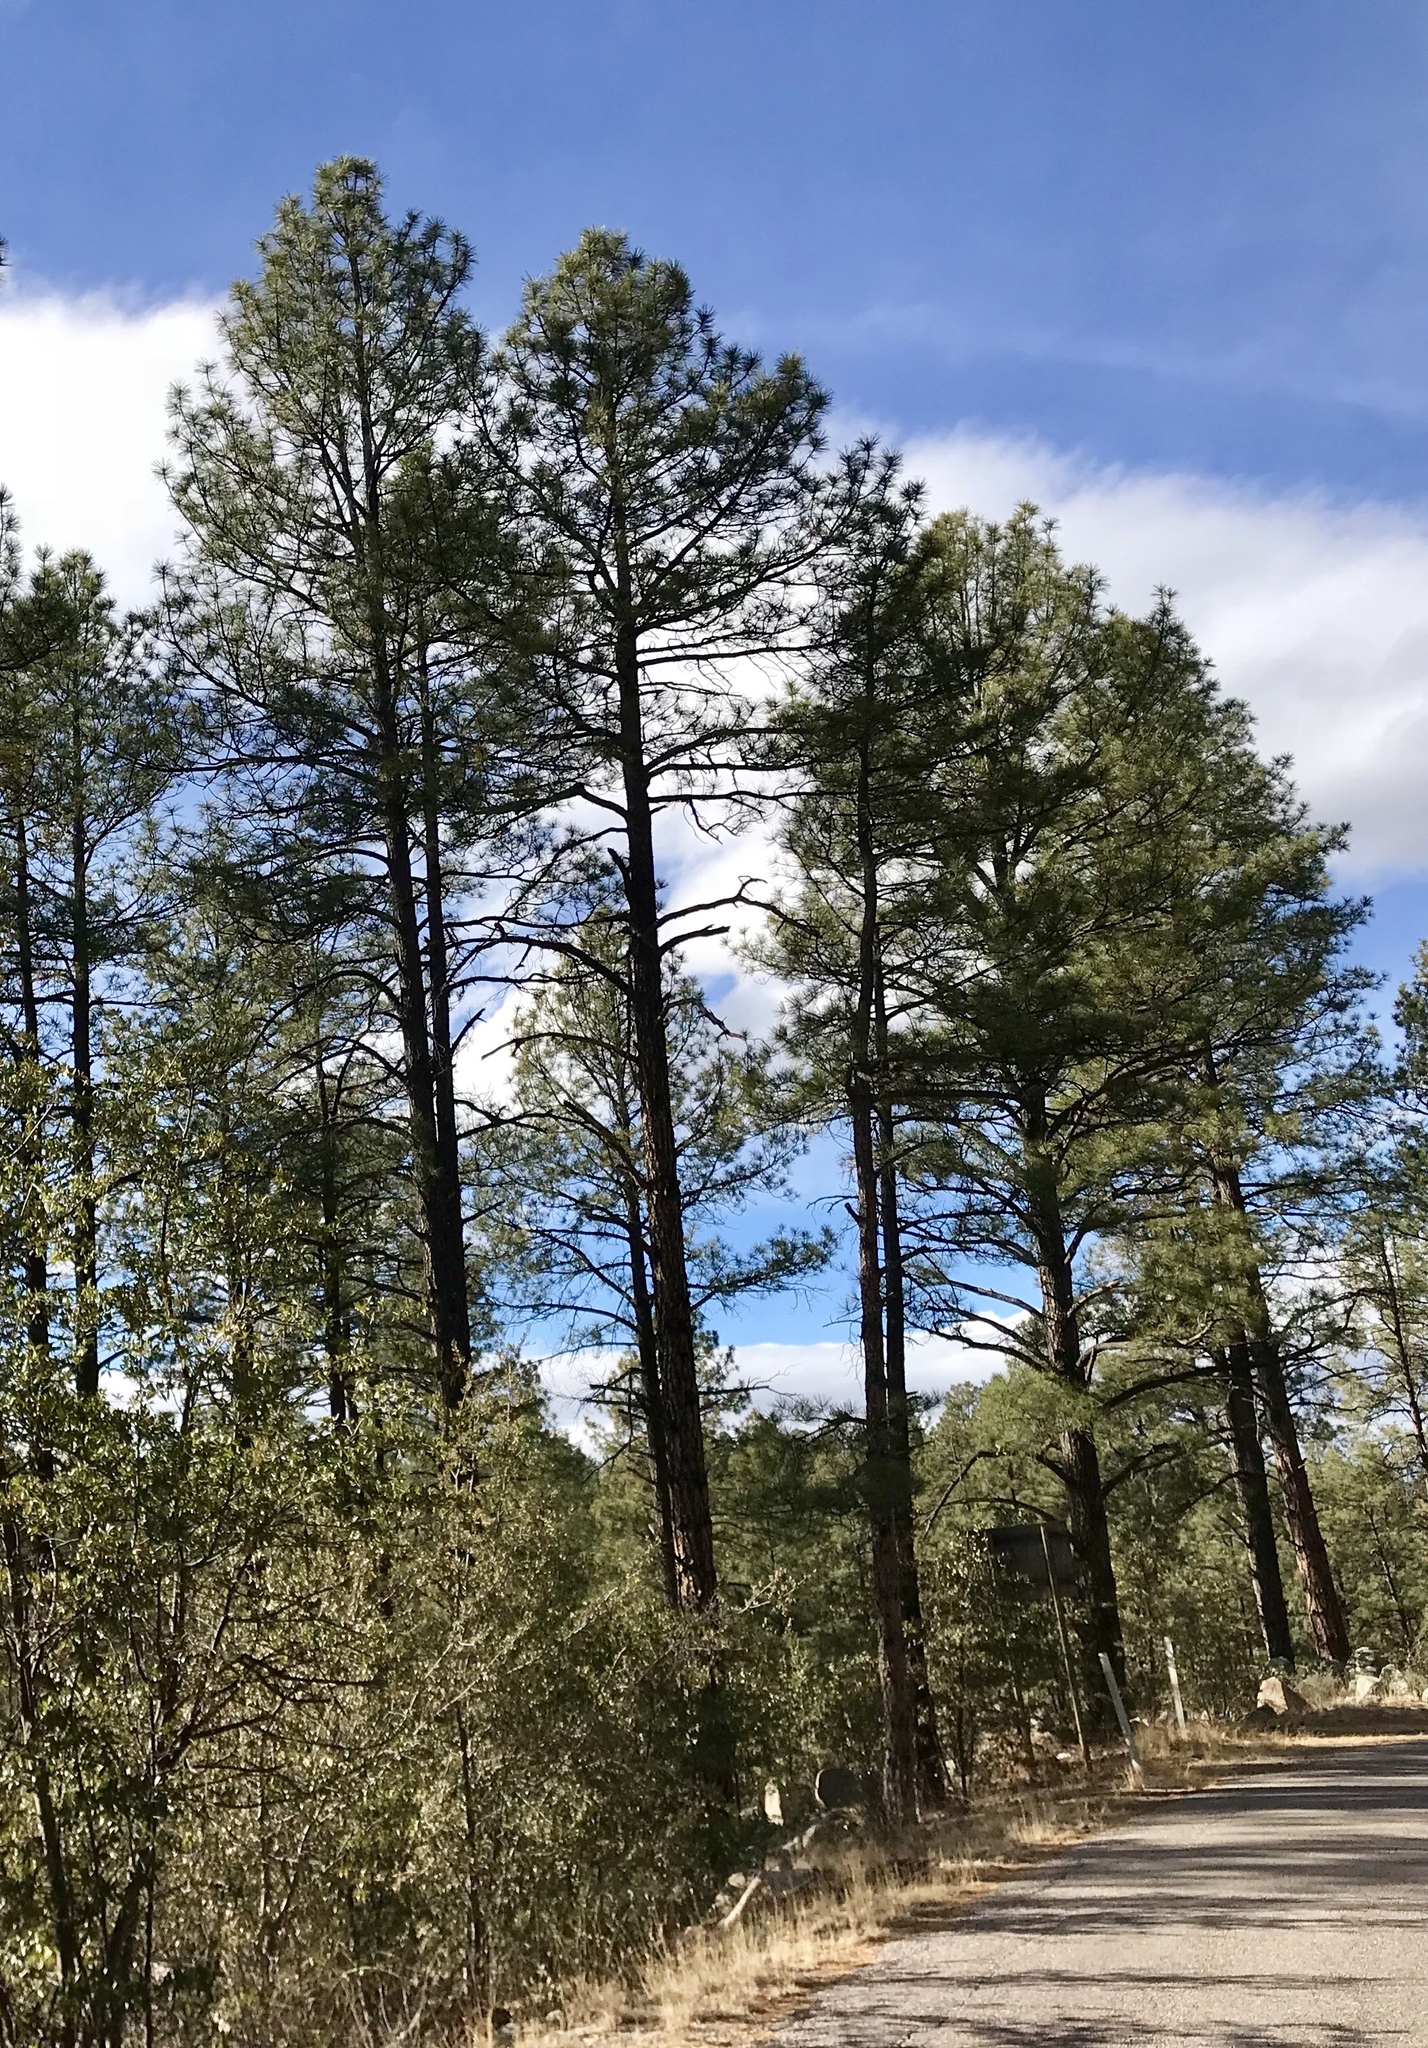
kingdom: Plantae
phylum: Tracheophyta
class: Pinopsida
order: Pinales
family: Pinaceae
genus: Pinus
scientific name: Pinus ponderosa
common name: Western yellow-pine
